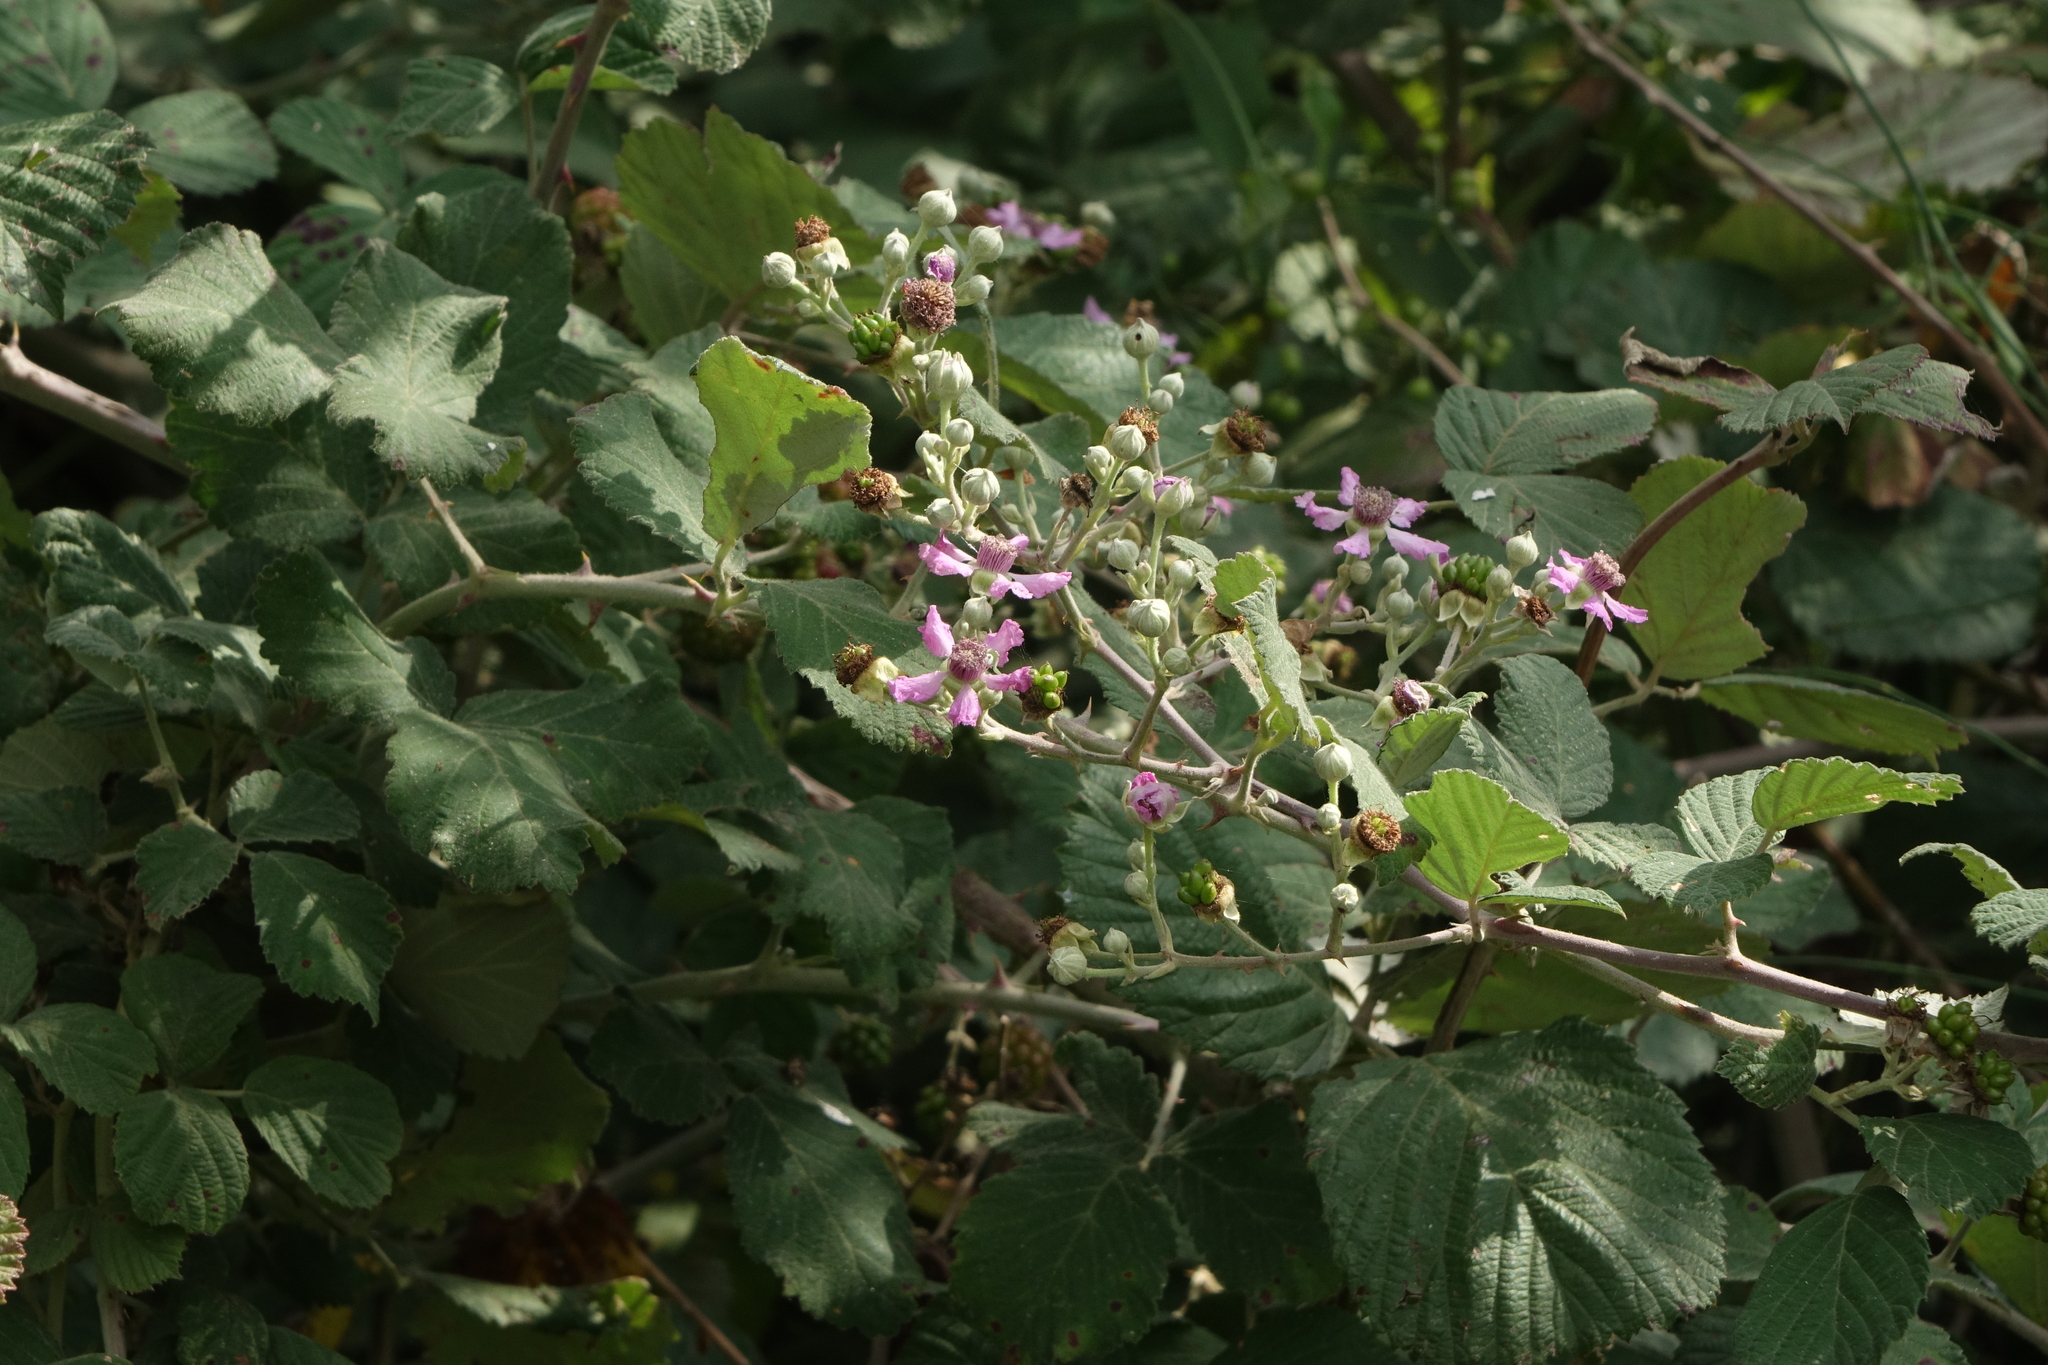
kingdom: Plantae
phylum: Tracheophyta
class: Magnoliopsida
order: Rosales
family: Rosaceae
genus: Rubus
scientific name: Rubus sanctus
